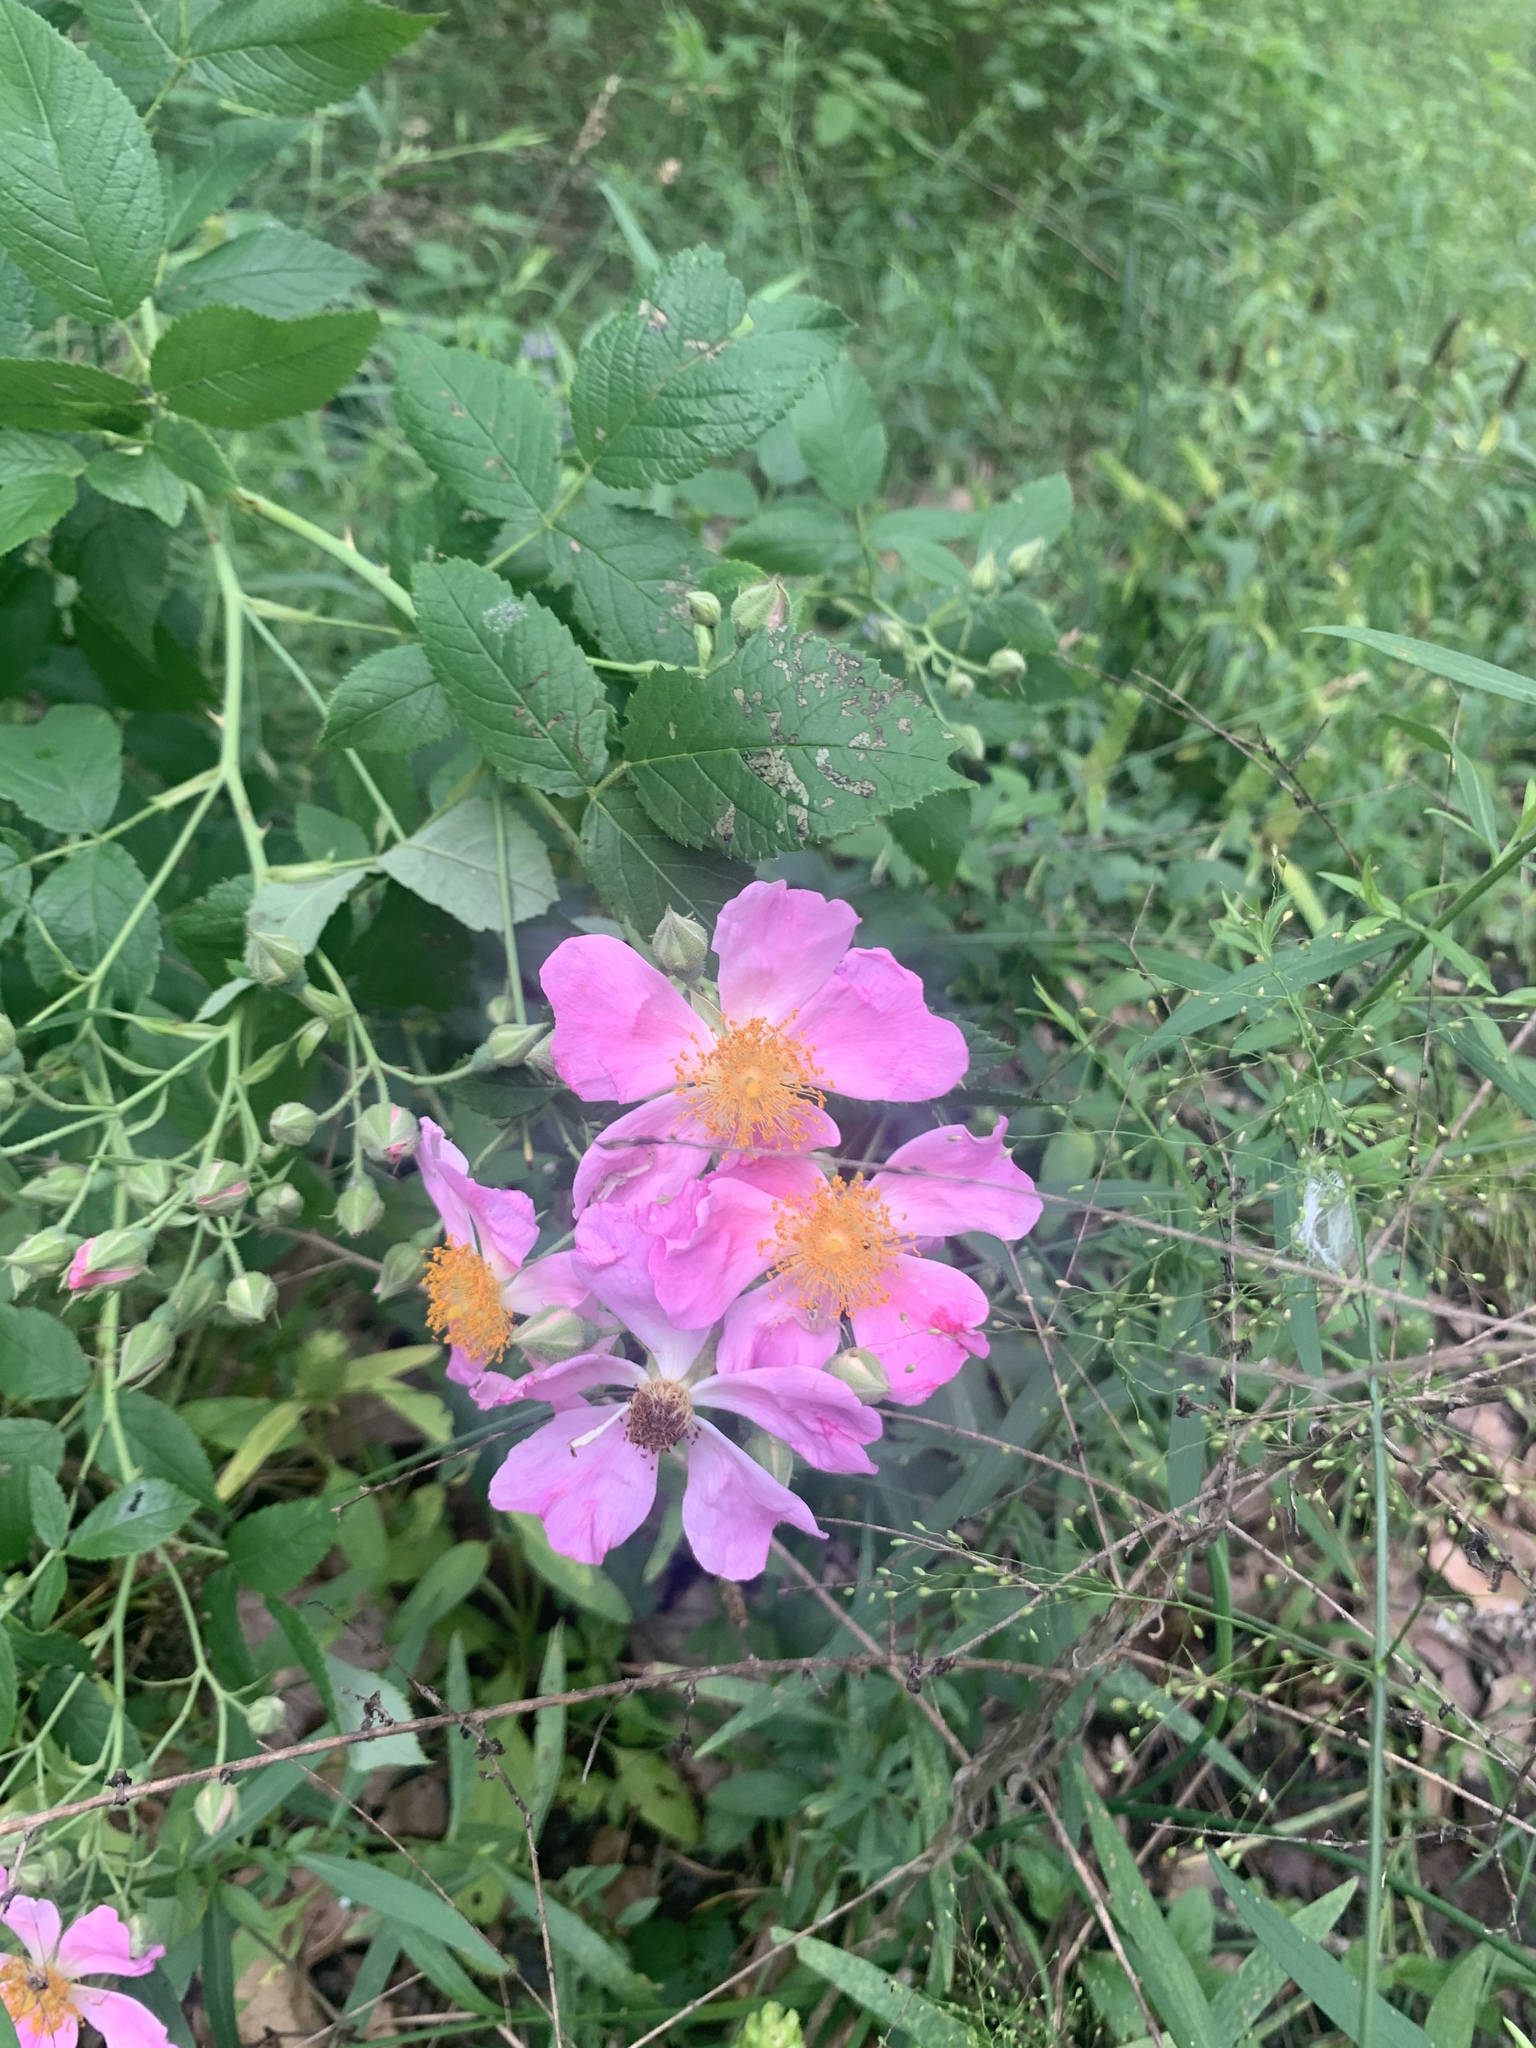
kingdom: Plantae
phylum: Tracheophyta
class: Magnoliopsida
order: Rosales
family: Rosaceae
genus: Rosa
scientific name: Rosa setigera
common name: Prairie rose
